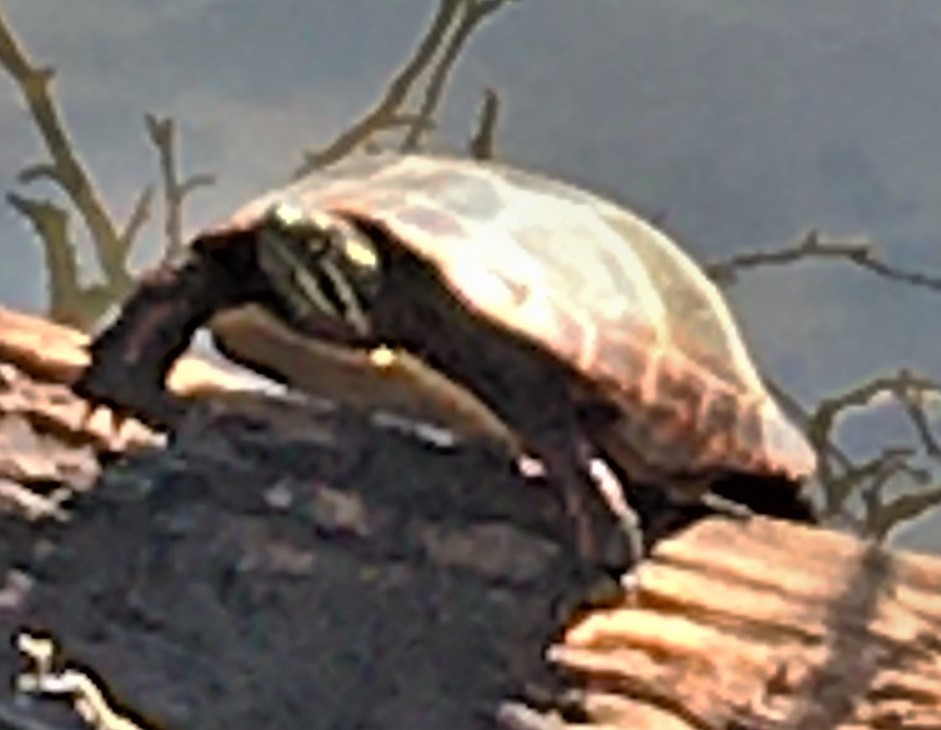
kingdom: Animalia
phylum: Chordata
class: Testudines
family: Emydidae
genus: Chrysemys
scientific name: Chrysemys picta
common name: Painted turtle
